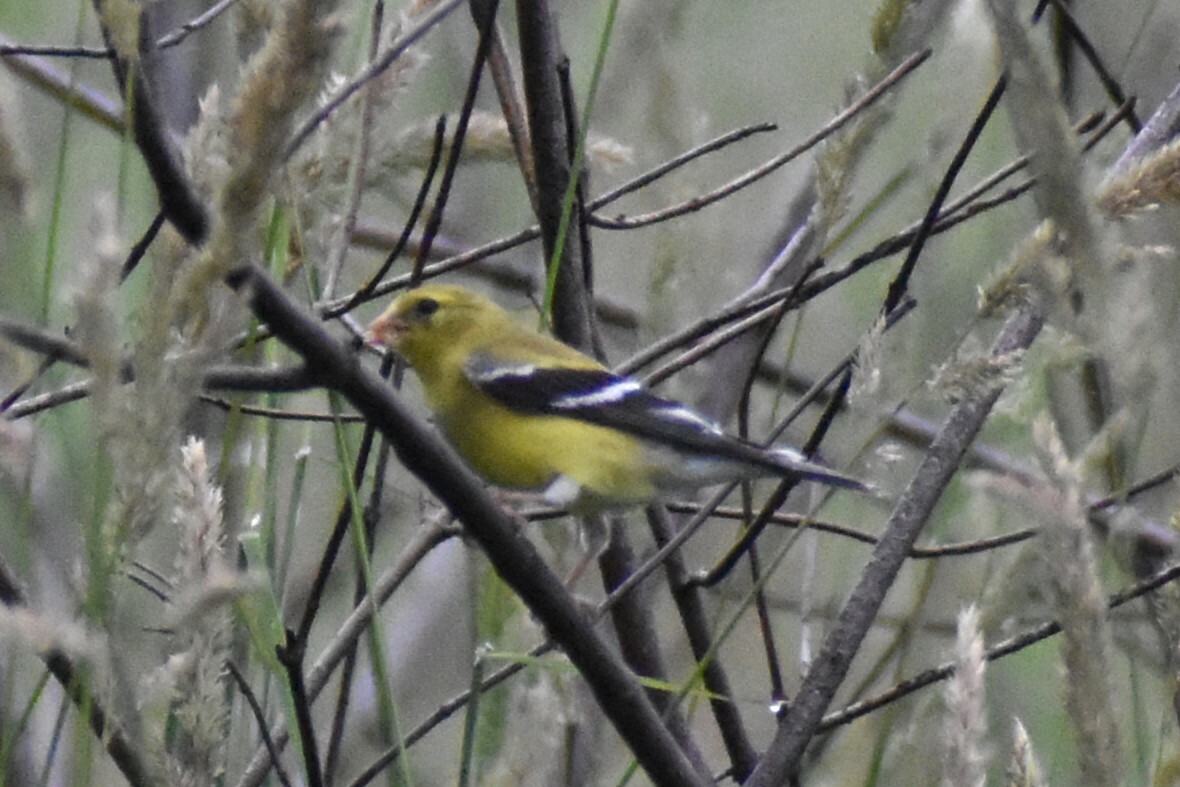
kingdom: Animalia
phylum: Chordata
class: Aves
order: Passeriformes
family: Fringillidae
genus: Spinus
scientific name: Spinus tristis
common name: American goldfinch
